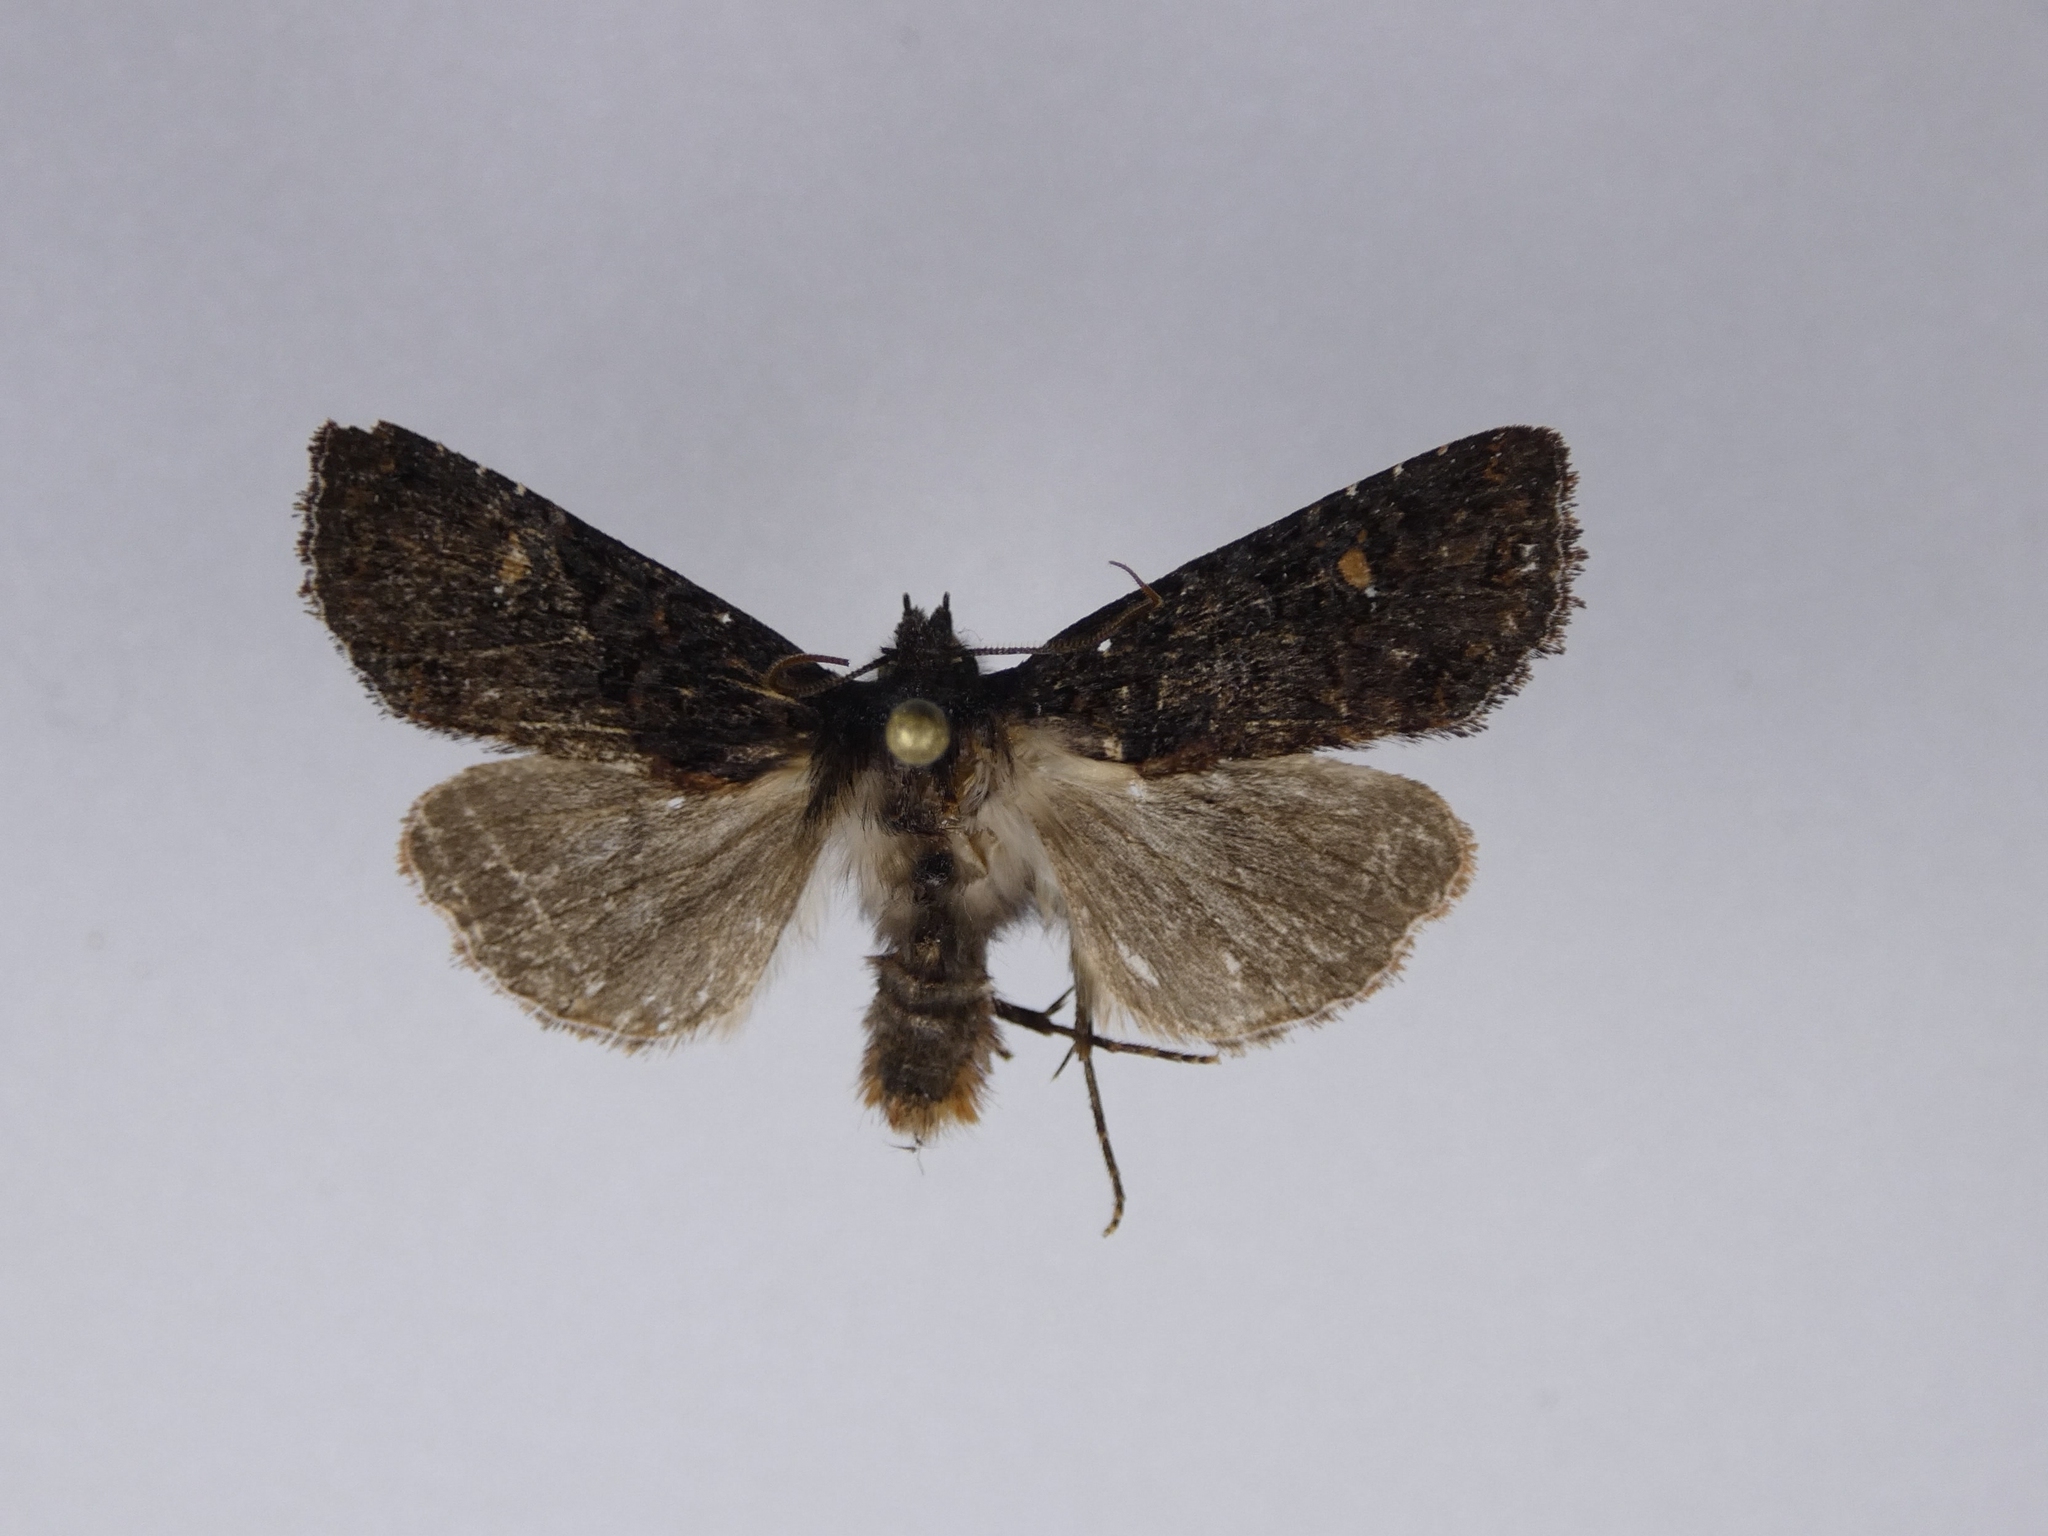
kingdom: Animalia
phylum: Arthropoda
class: Insecta
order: Lepidoptera
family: Noctuidae
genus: Meterana
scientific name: Meterana vitiosa
